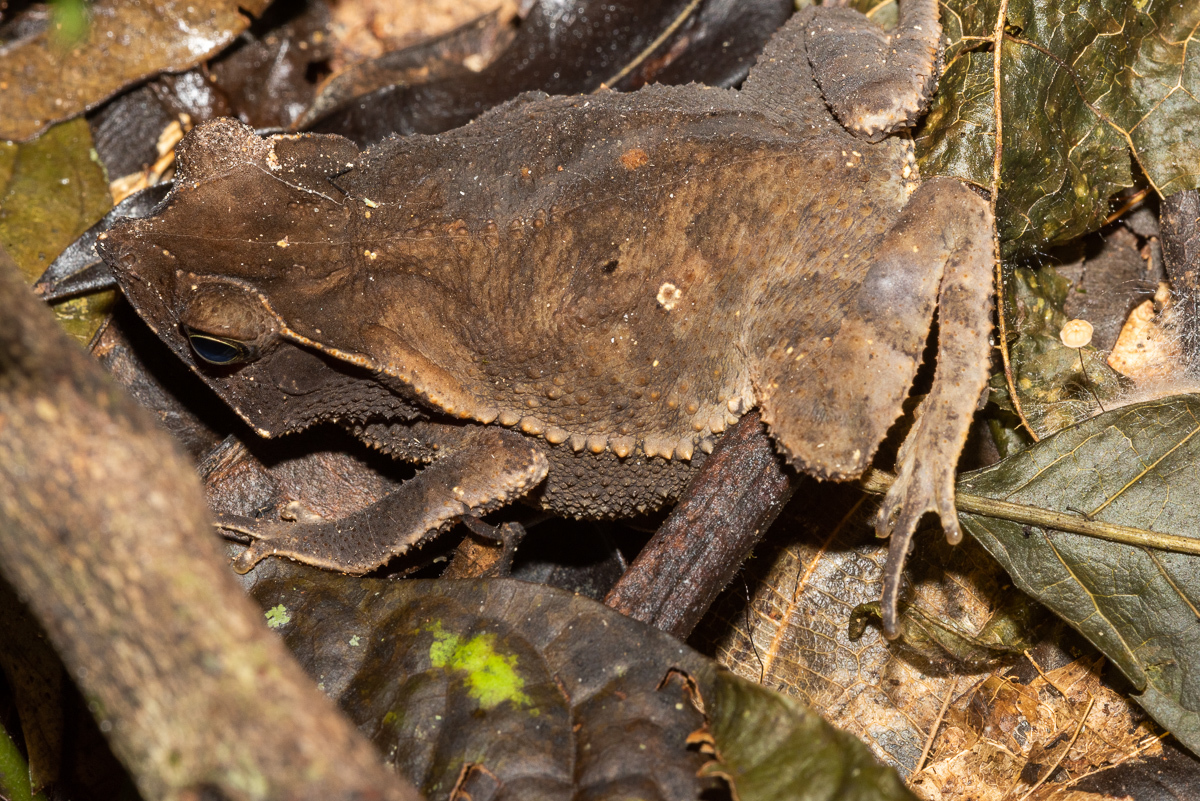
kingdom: Animalia
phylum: Chordata
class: Amphibia
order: Anura
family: Bufonidae
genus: Rhinella
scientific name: Rhinella margaritifera
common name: Mitred toad
